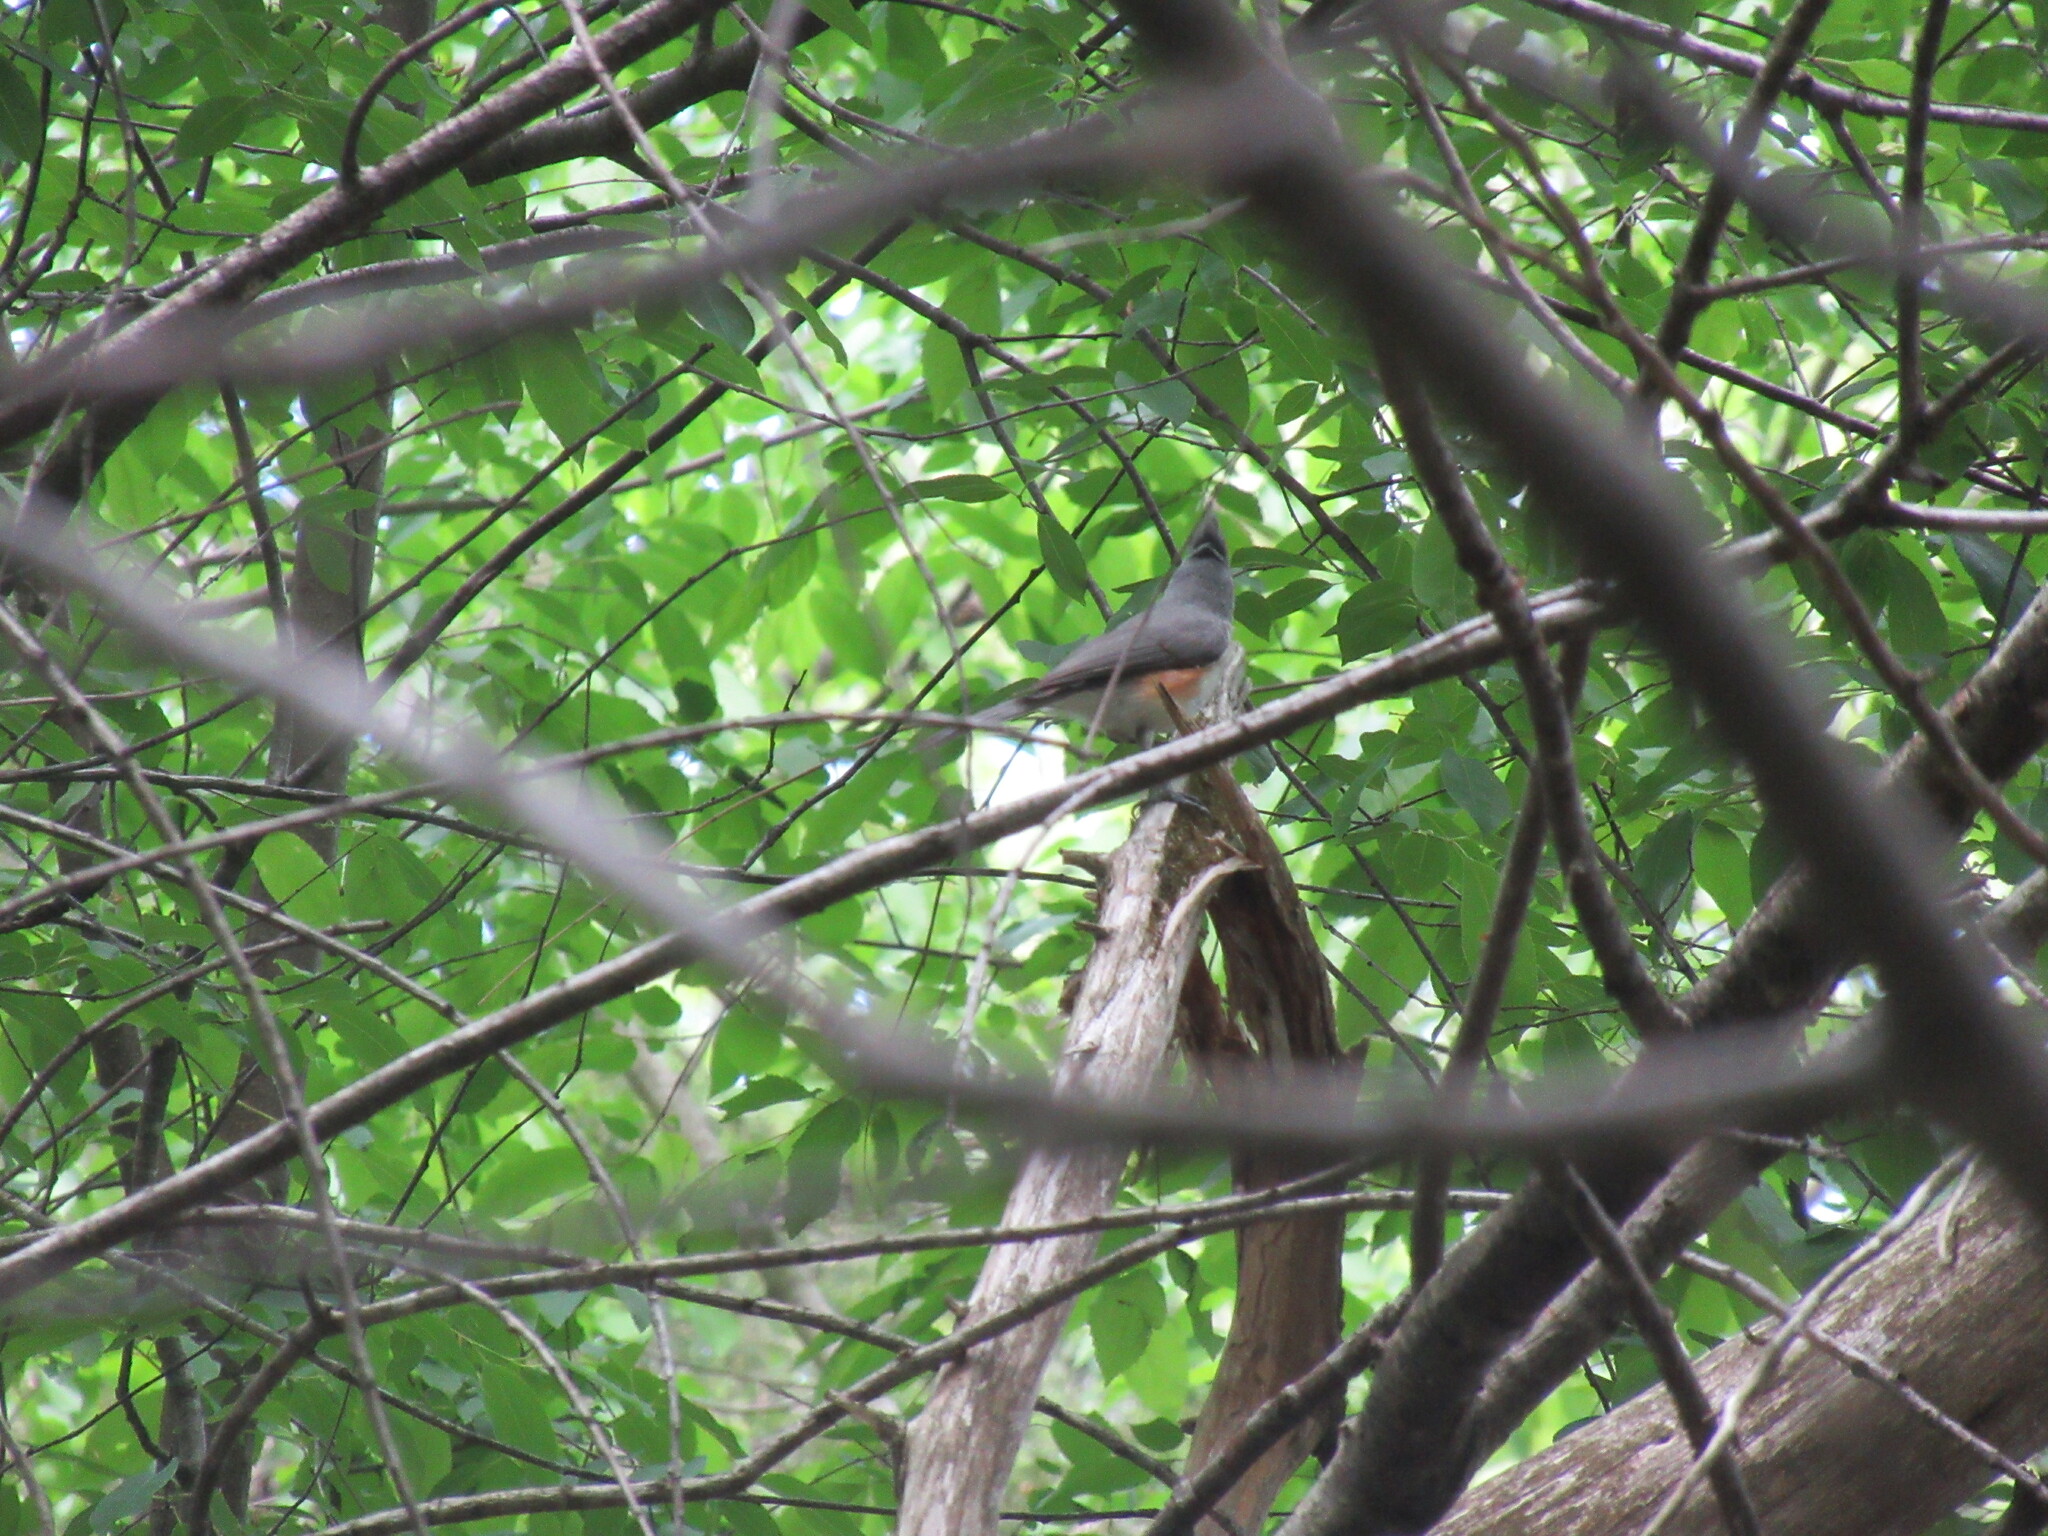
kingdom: Animalia
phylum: Chordata
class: Aves
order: Passeriformes
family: Paridae
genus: Baeolophus
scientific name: Baeolophus bicolor
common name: Tufted titmouse
